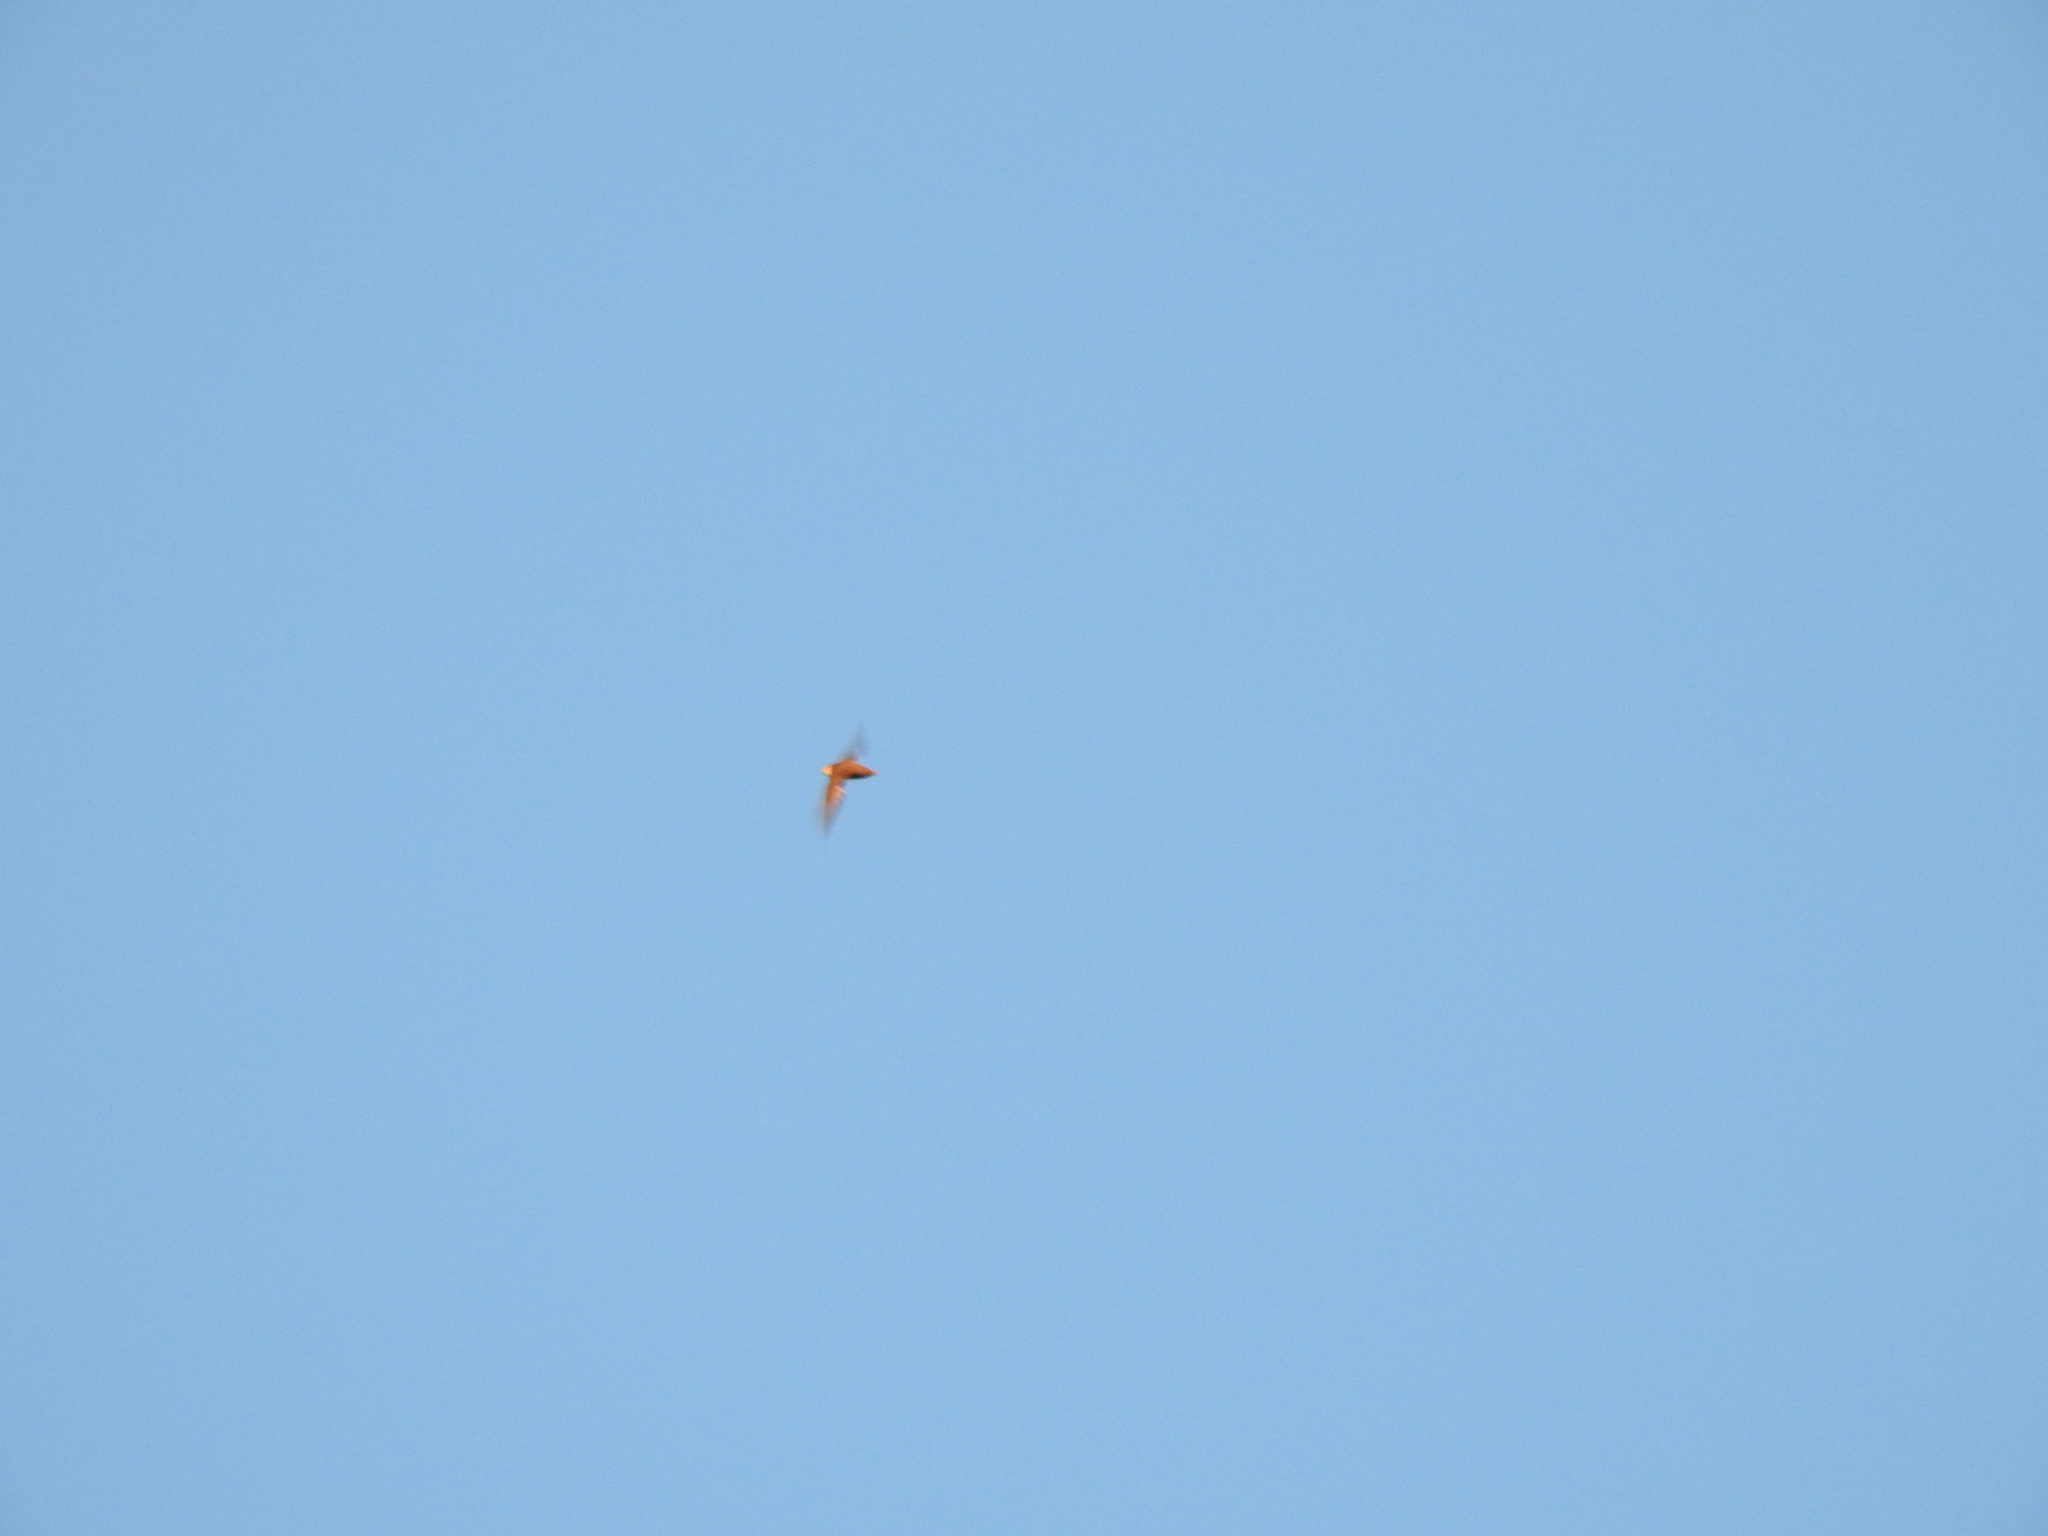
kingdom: Animalia
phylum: Chordata
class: Aves
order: Apodiformes
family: Apodidae
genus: Chaetura
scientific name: Chaetura pelagica
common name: Chimney swift
